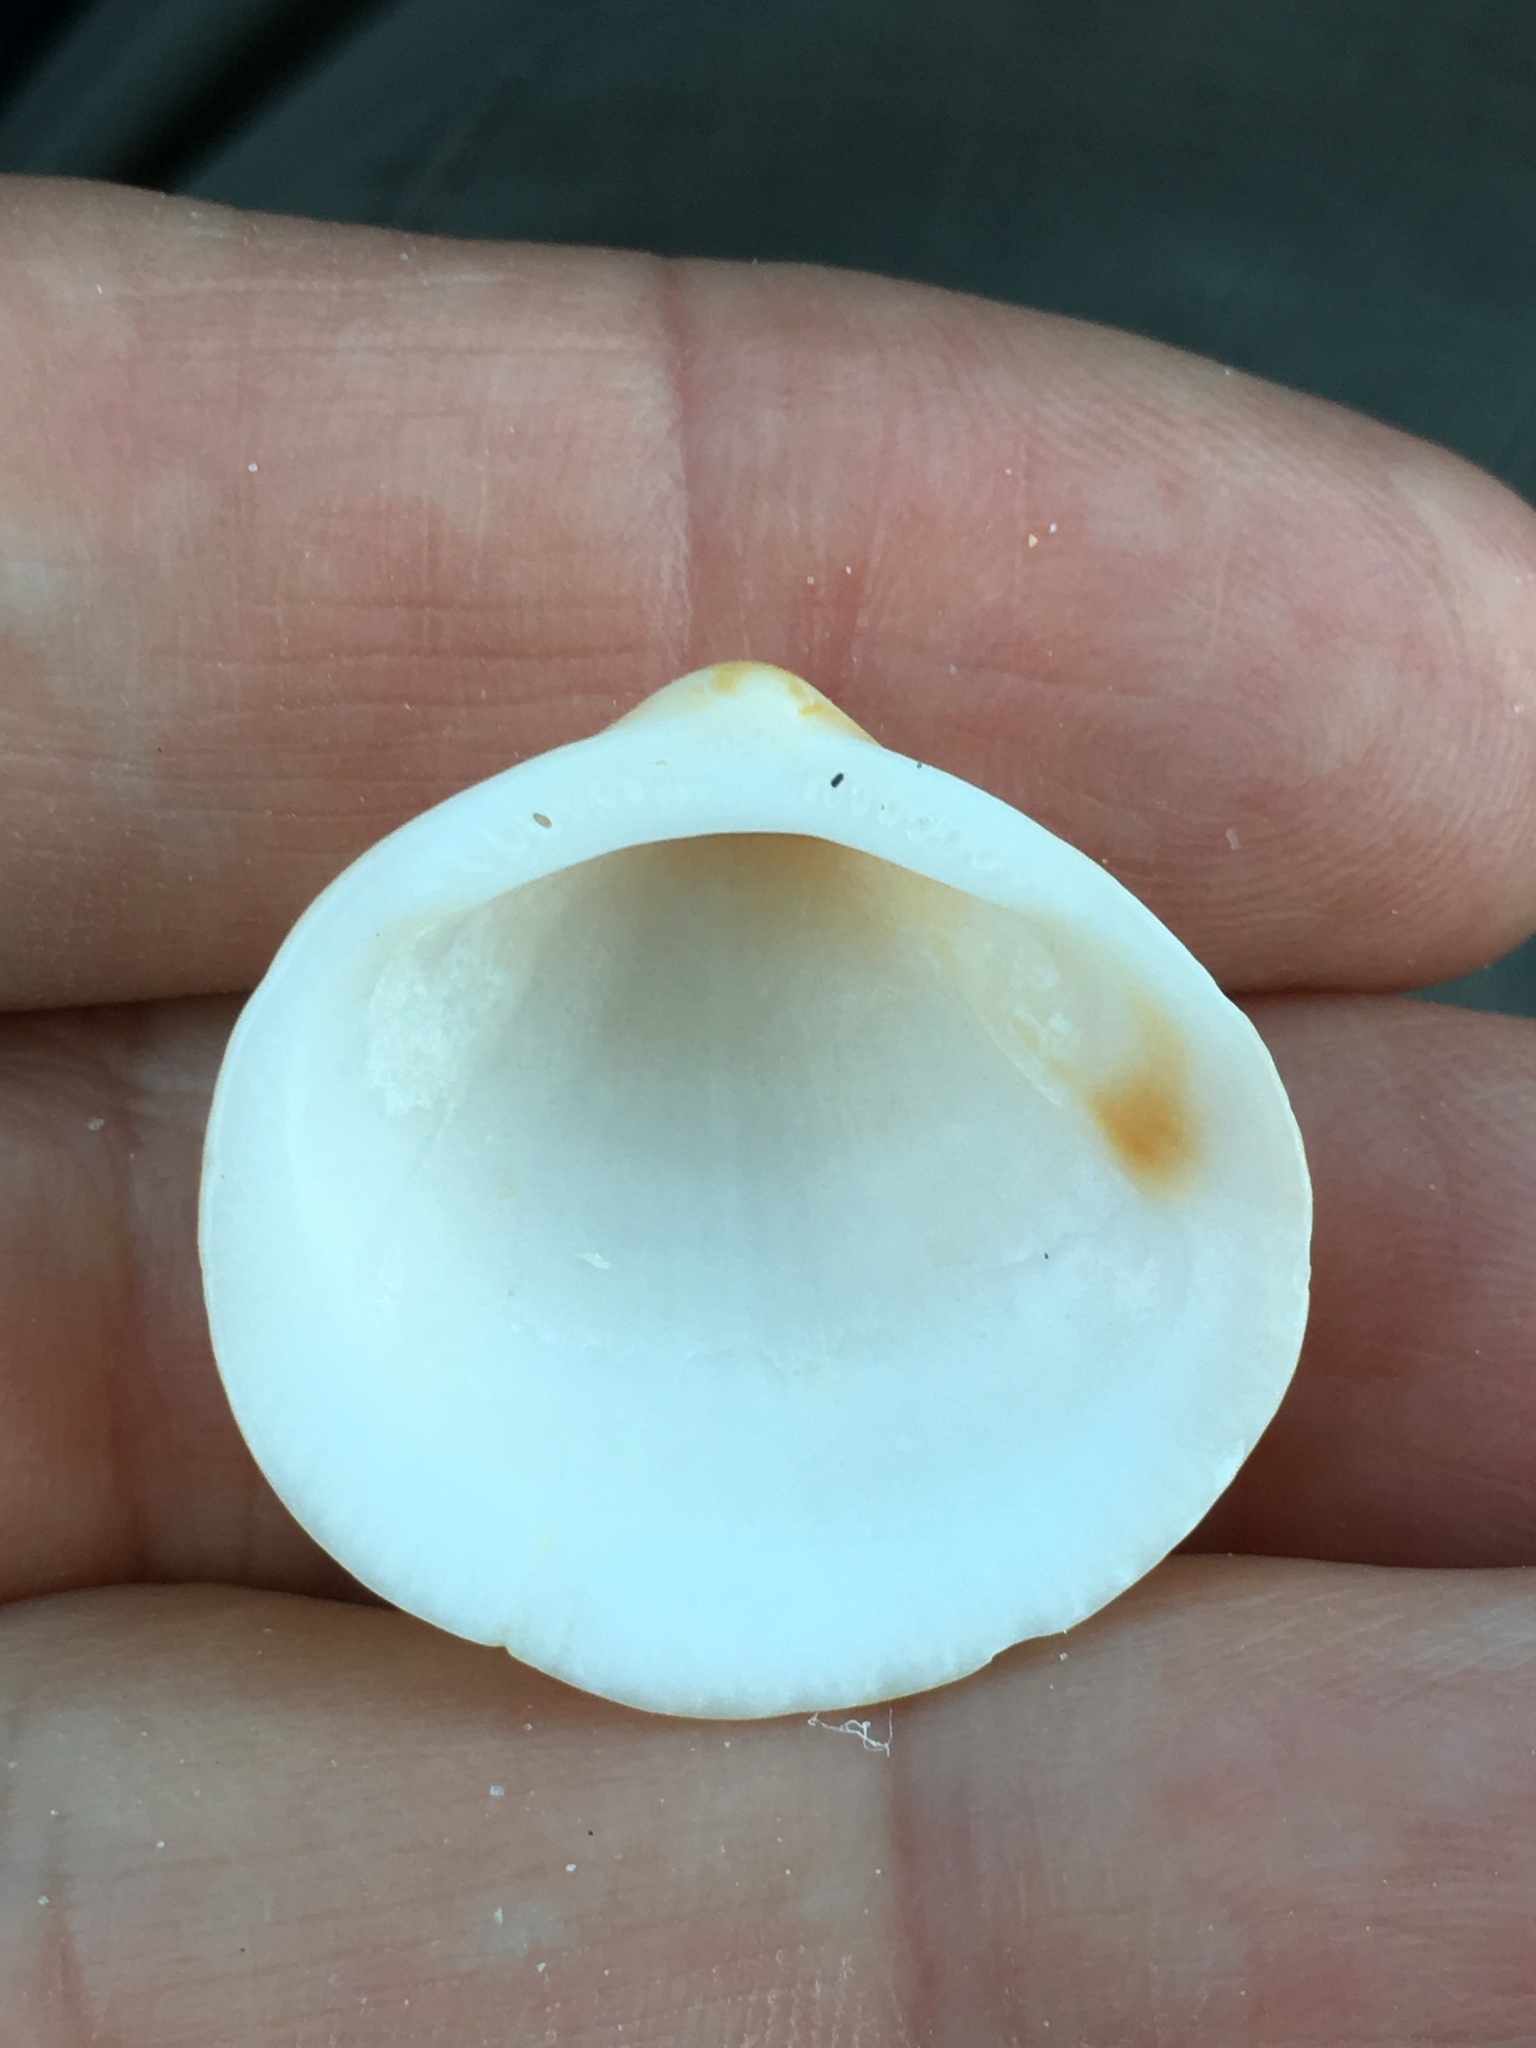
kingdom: Animalia
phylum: Mollusca
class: Bivalvia
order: Arcida
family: Glycymerididae
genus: Glycymeris
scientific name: Glycymeris spectralis
